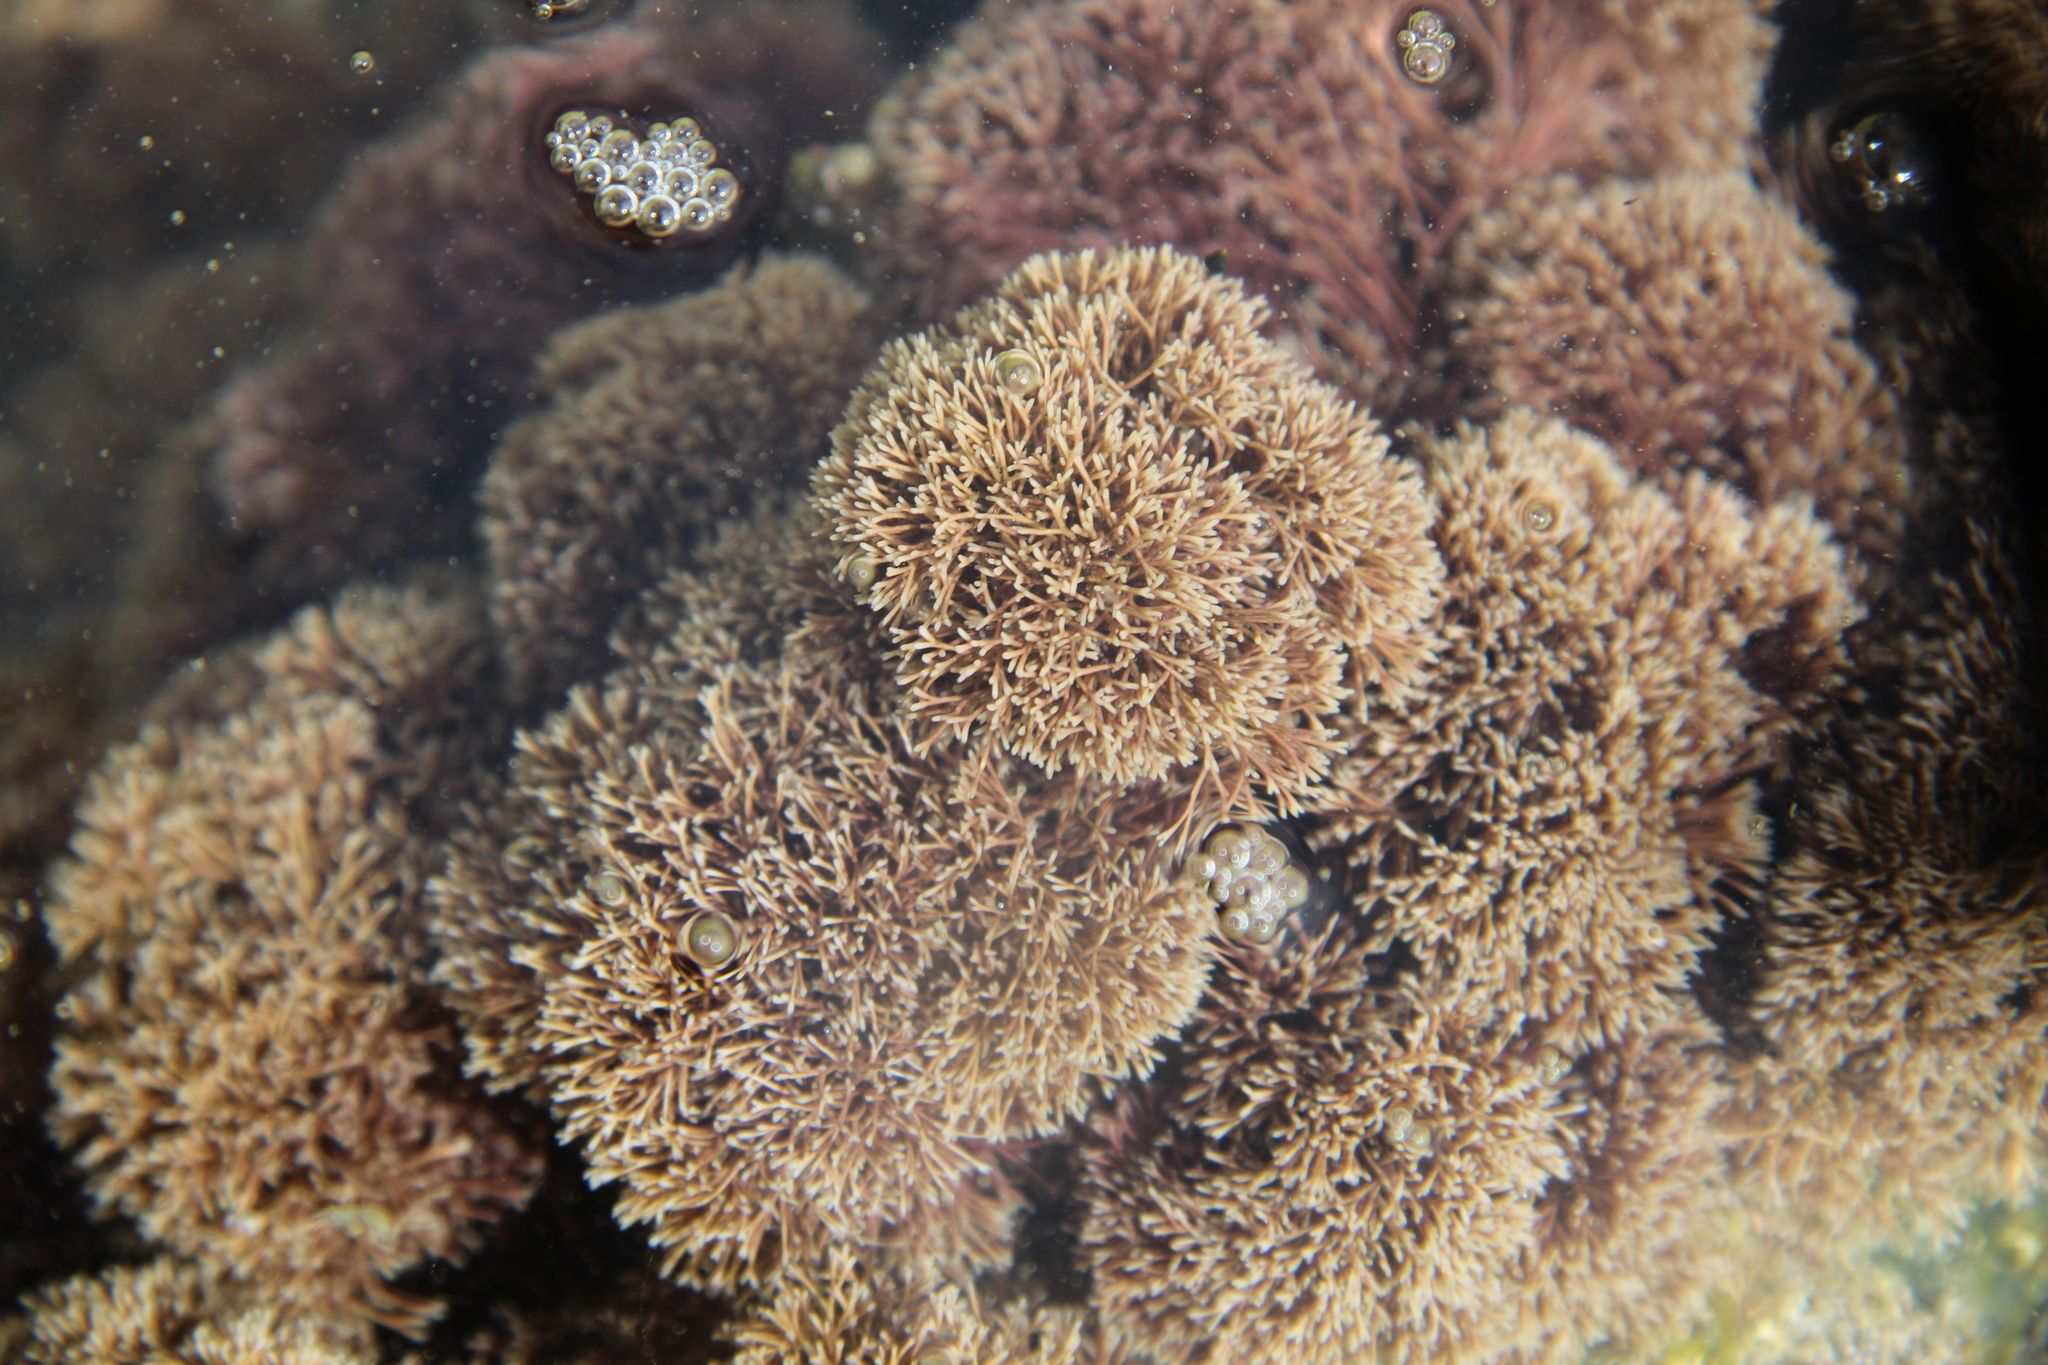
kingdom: Plantae
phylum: Rhodophyta
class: Florideophyceae
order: Corallinales
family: Corallinaceae
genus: Jania
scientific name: Jania
